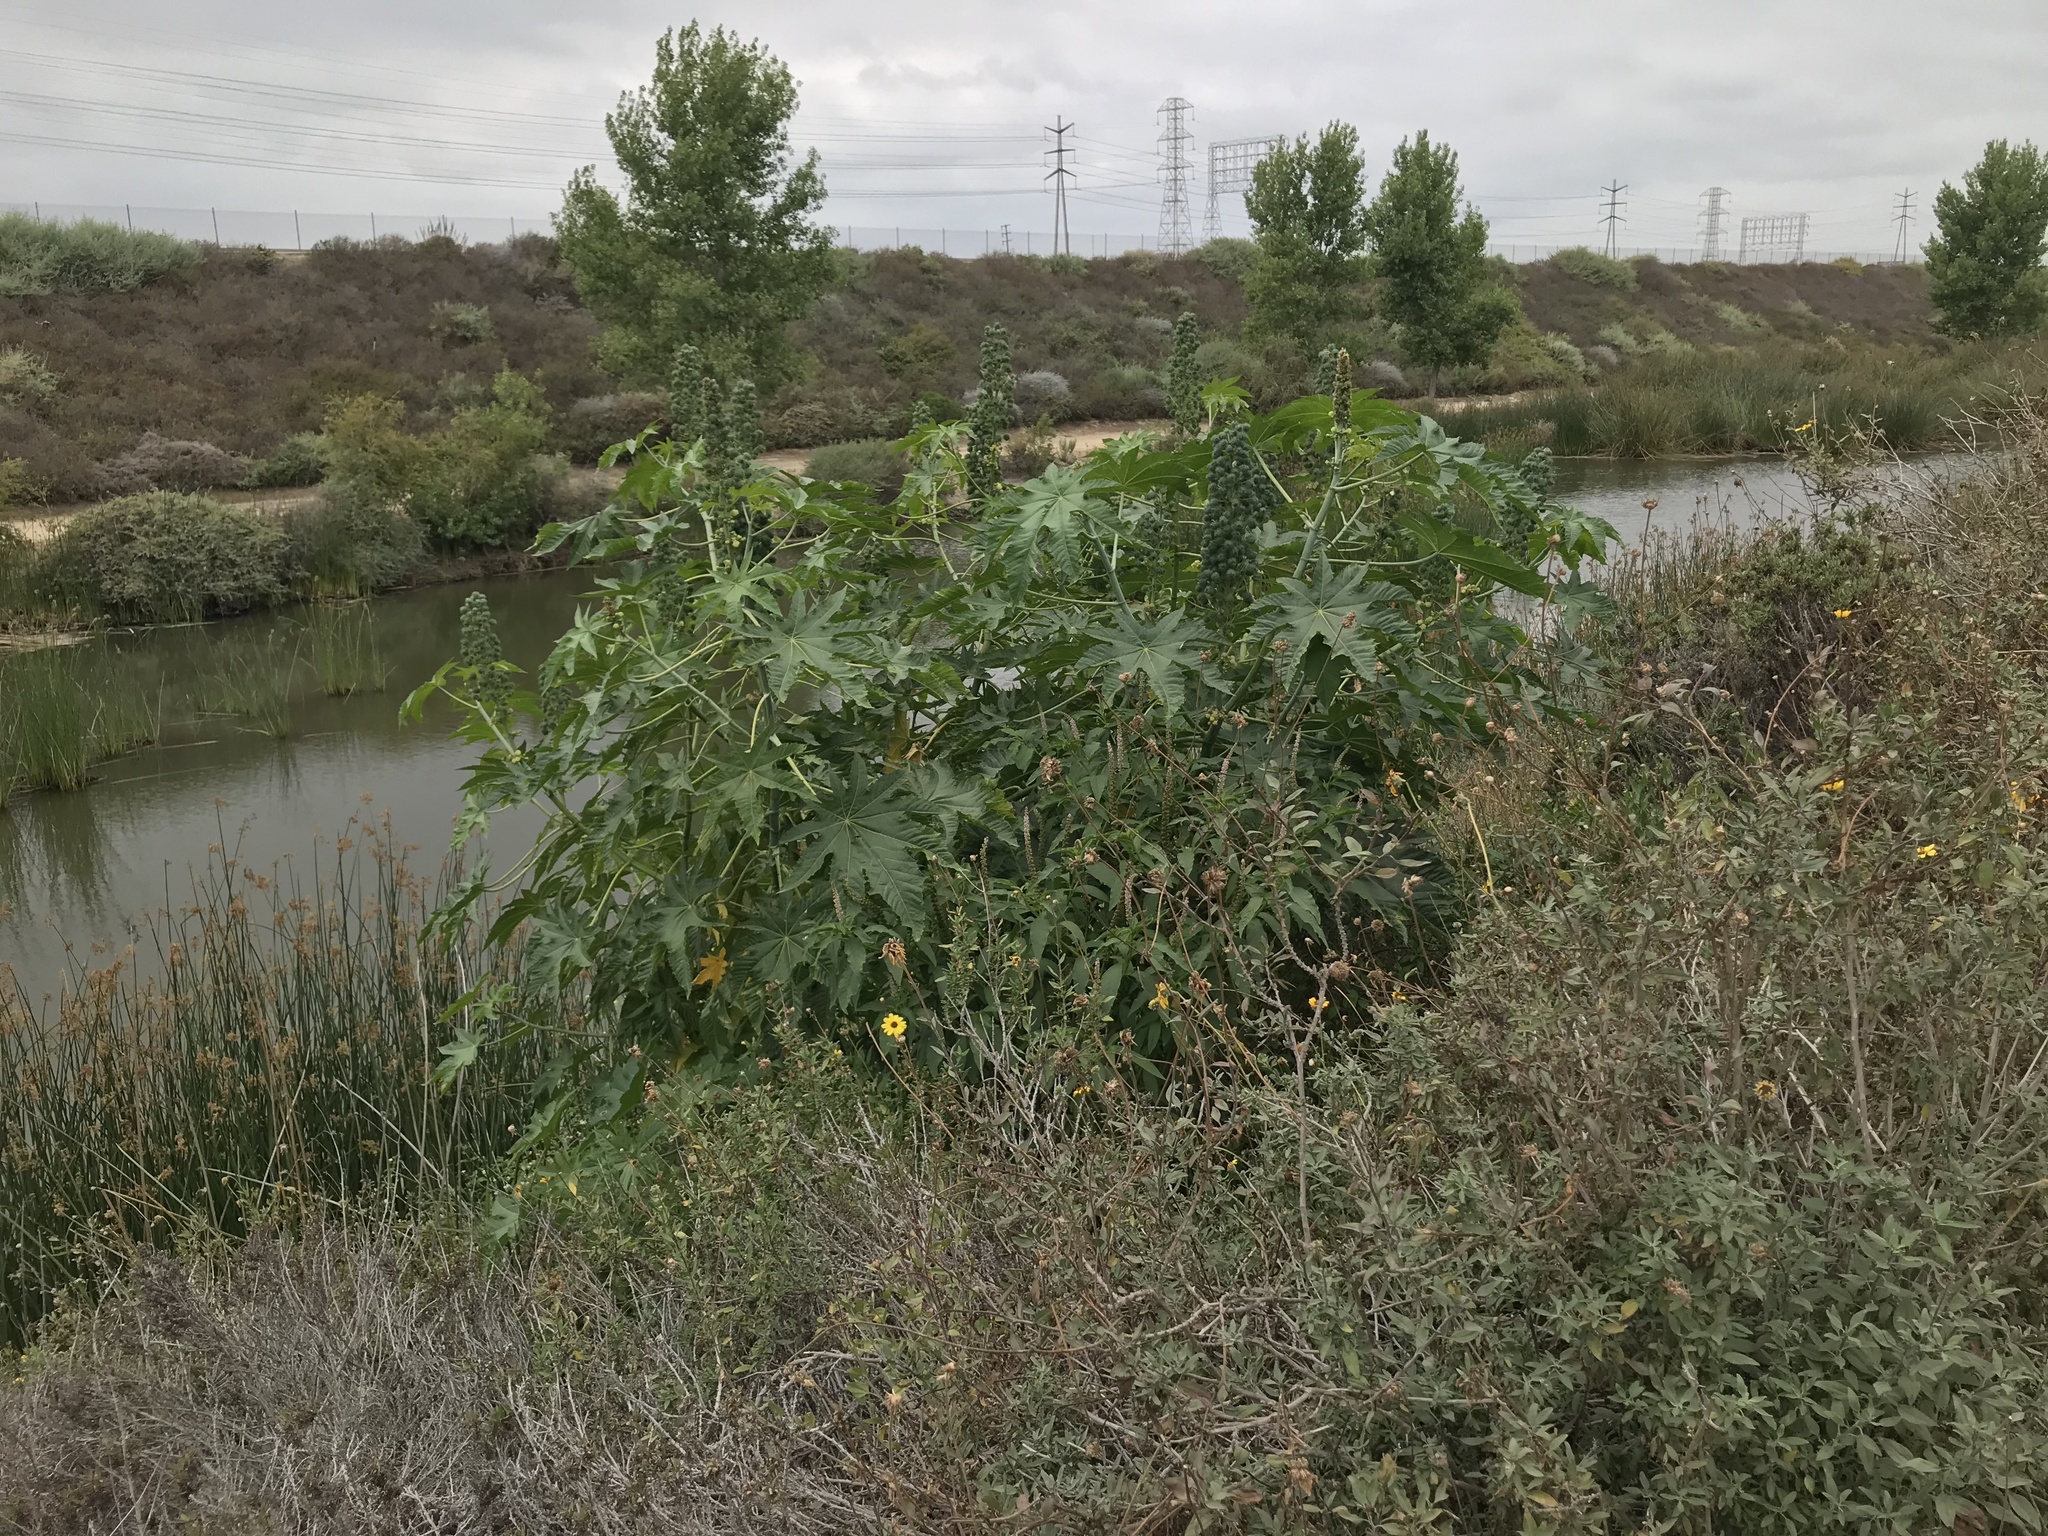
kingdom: Plantae
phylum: Tracheophyta
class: Magnoliopsida
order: Malpighiales
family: Euphorbiaceae
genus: Ricinus
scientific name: Ricinus communis
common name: Castor-oil-plant
